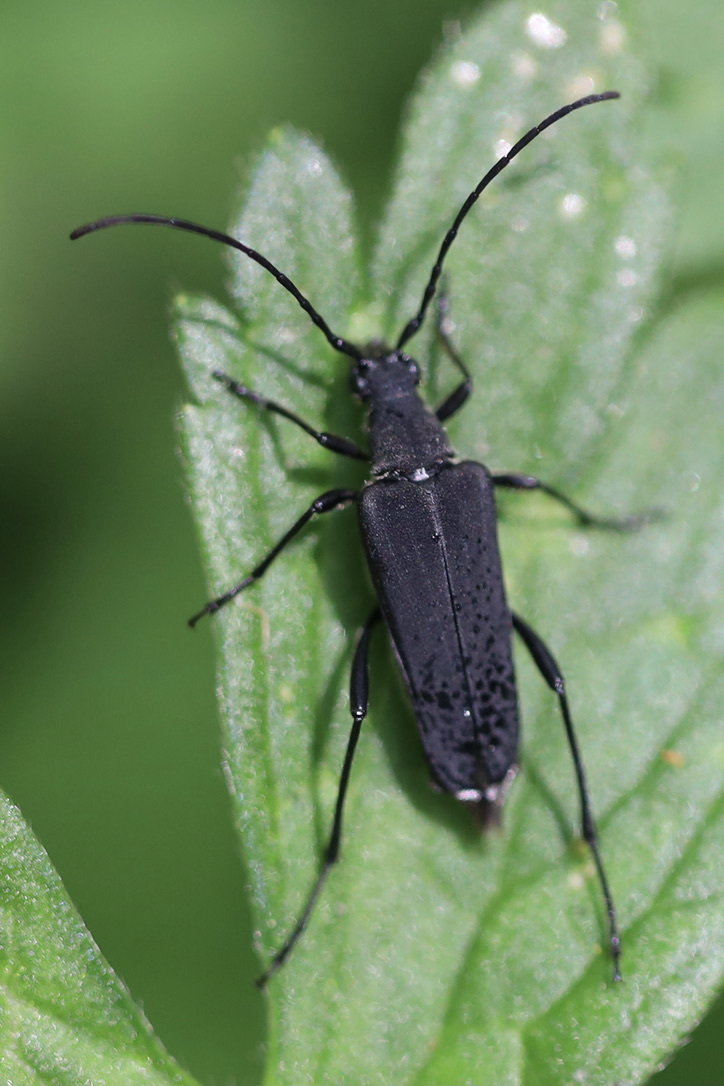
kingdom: Animalia
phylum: Arthropoda
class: Insecta
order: Coleoptera
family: Cerambycidae
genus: Trachysida
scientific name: Trachysida aspera
